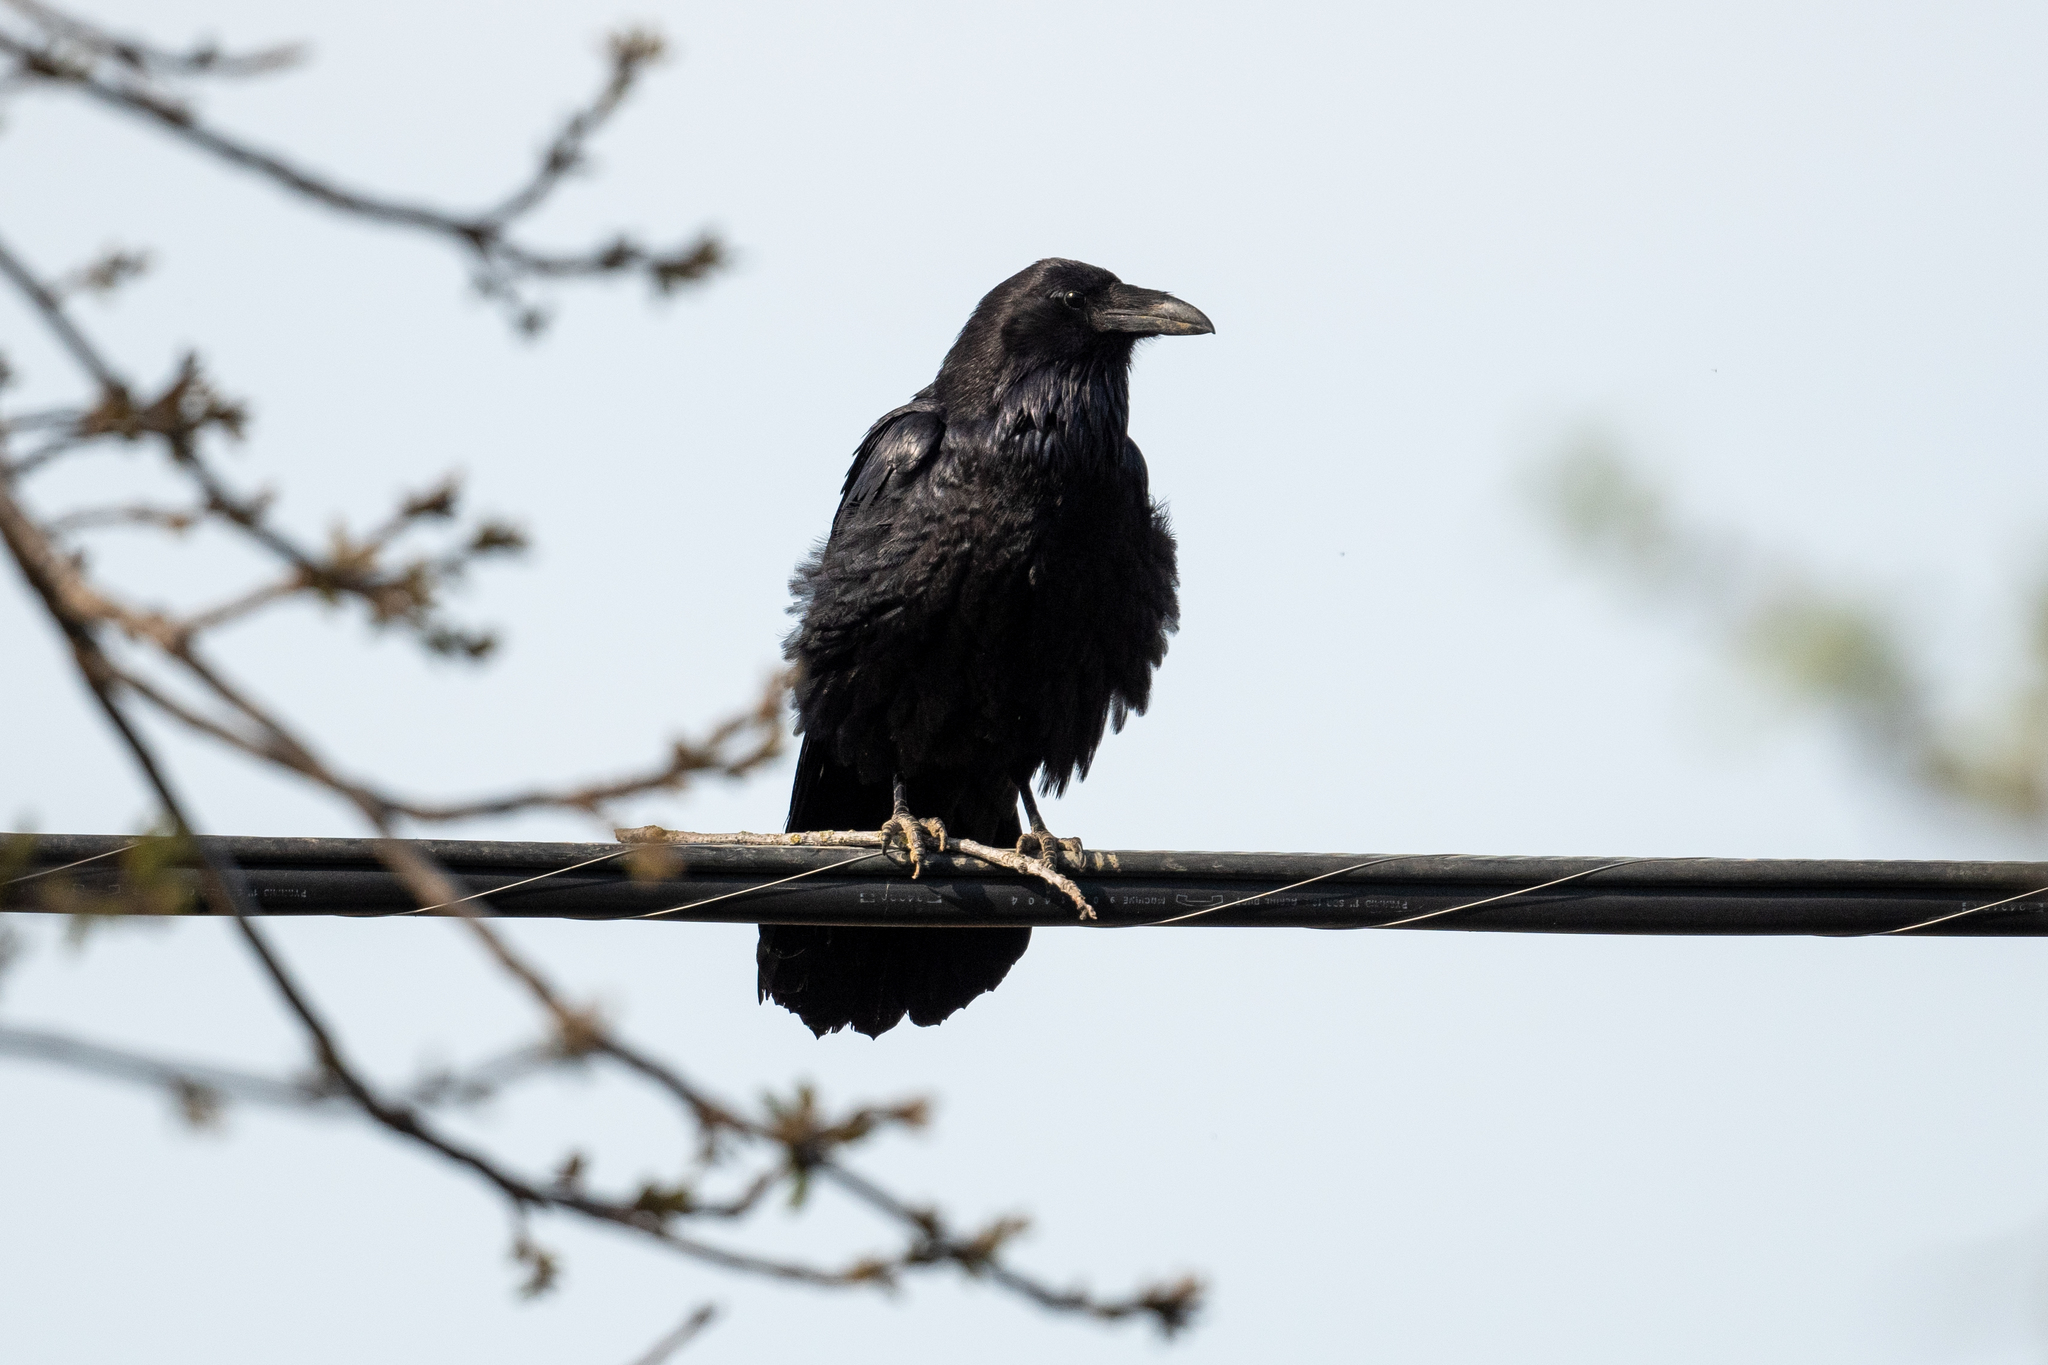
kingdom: Animalia
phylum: Chordata
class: Aves
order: Passeriformes
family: Corvidae
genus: Corvus
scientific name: Corvus corax
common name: Common raven
